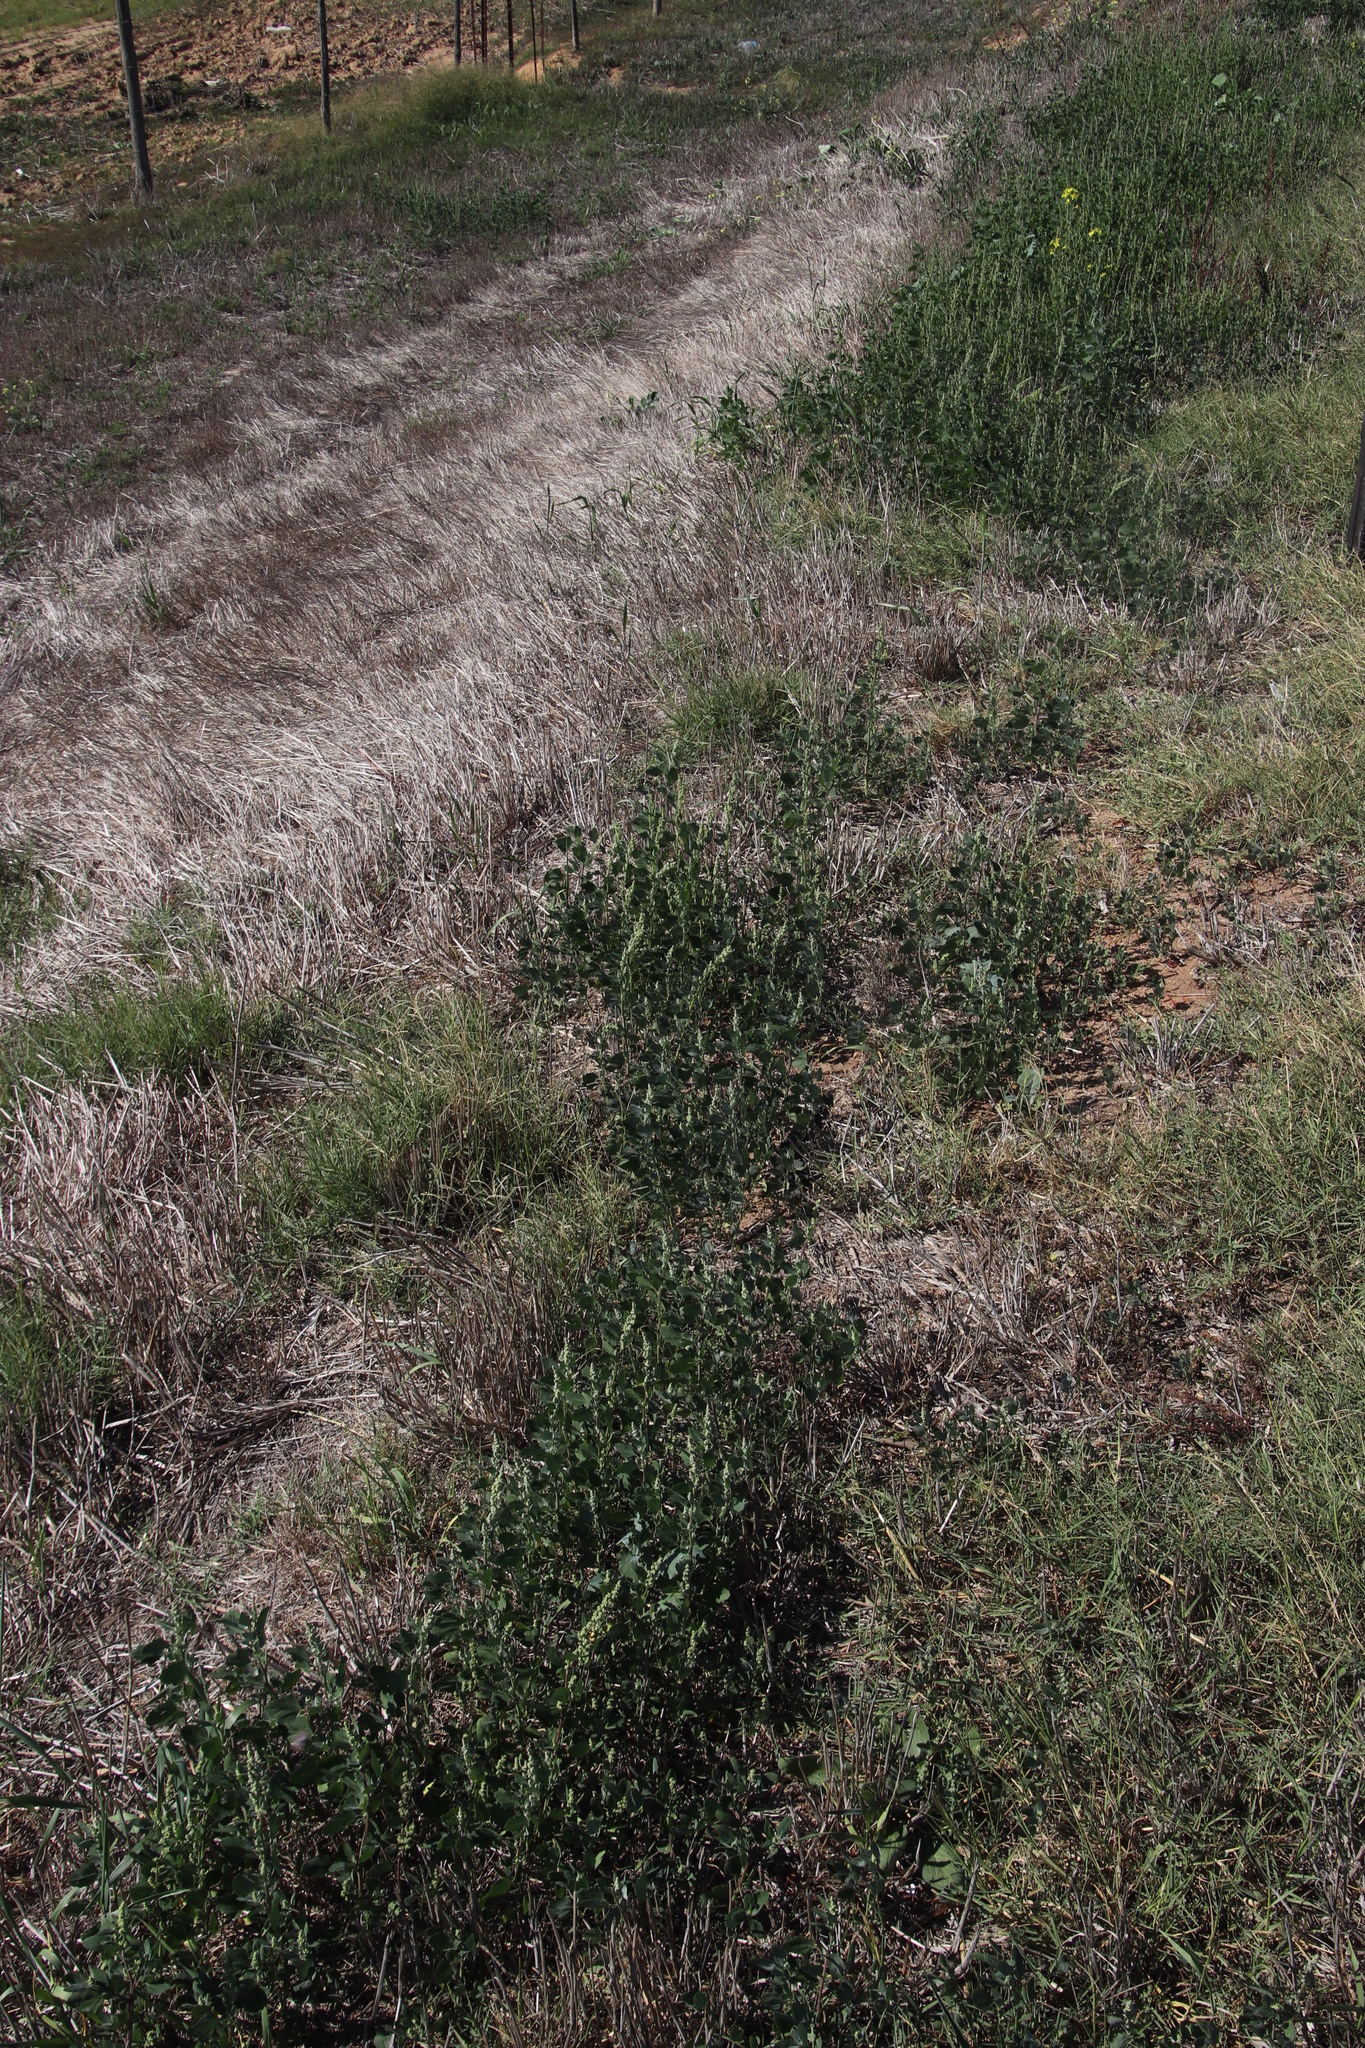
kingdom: Plantae
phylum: Tracheophyta
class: Magnoliopsida
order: Caryophyllales
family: Amaranthaceae
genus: Chenopodiastrum
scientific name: Chenopodiastrum murale
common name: Sowbane
